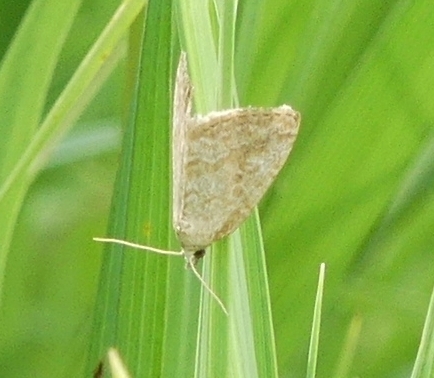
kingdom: Animalia
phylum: Arthropoda
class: Insecta
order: Lepidoptera
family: Noctuidae
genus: Protodeltote
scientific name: Protodeltote albidula
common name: Pale glyph
